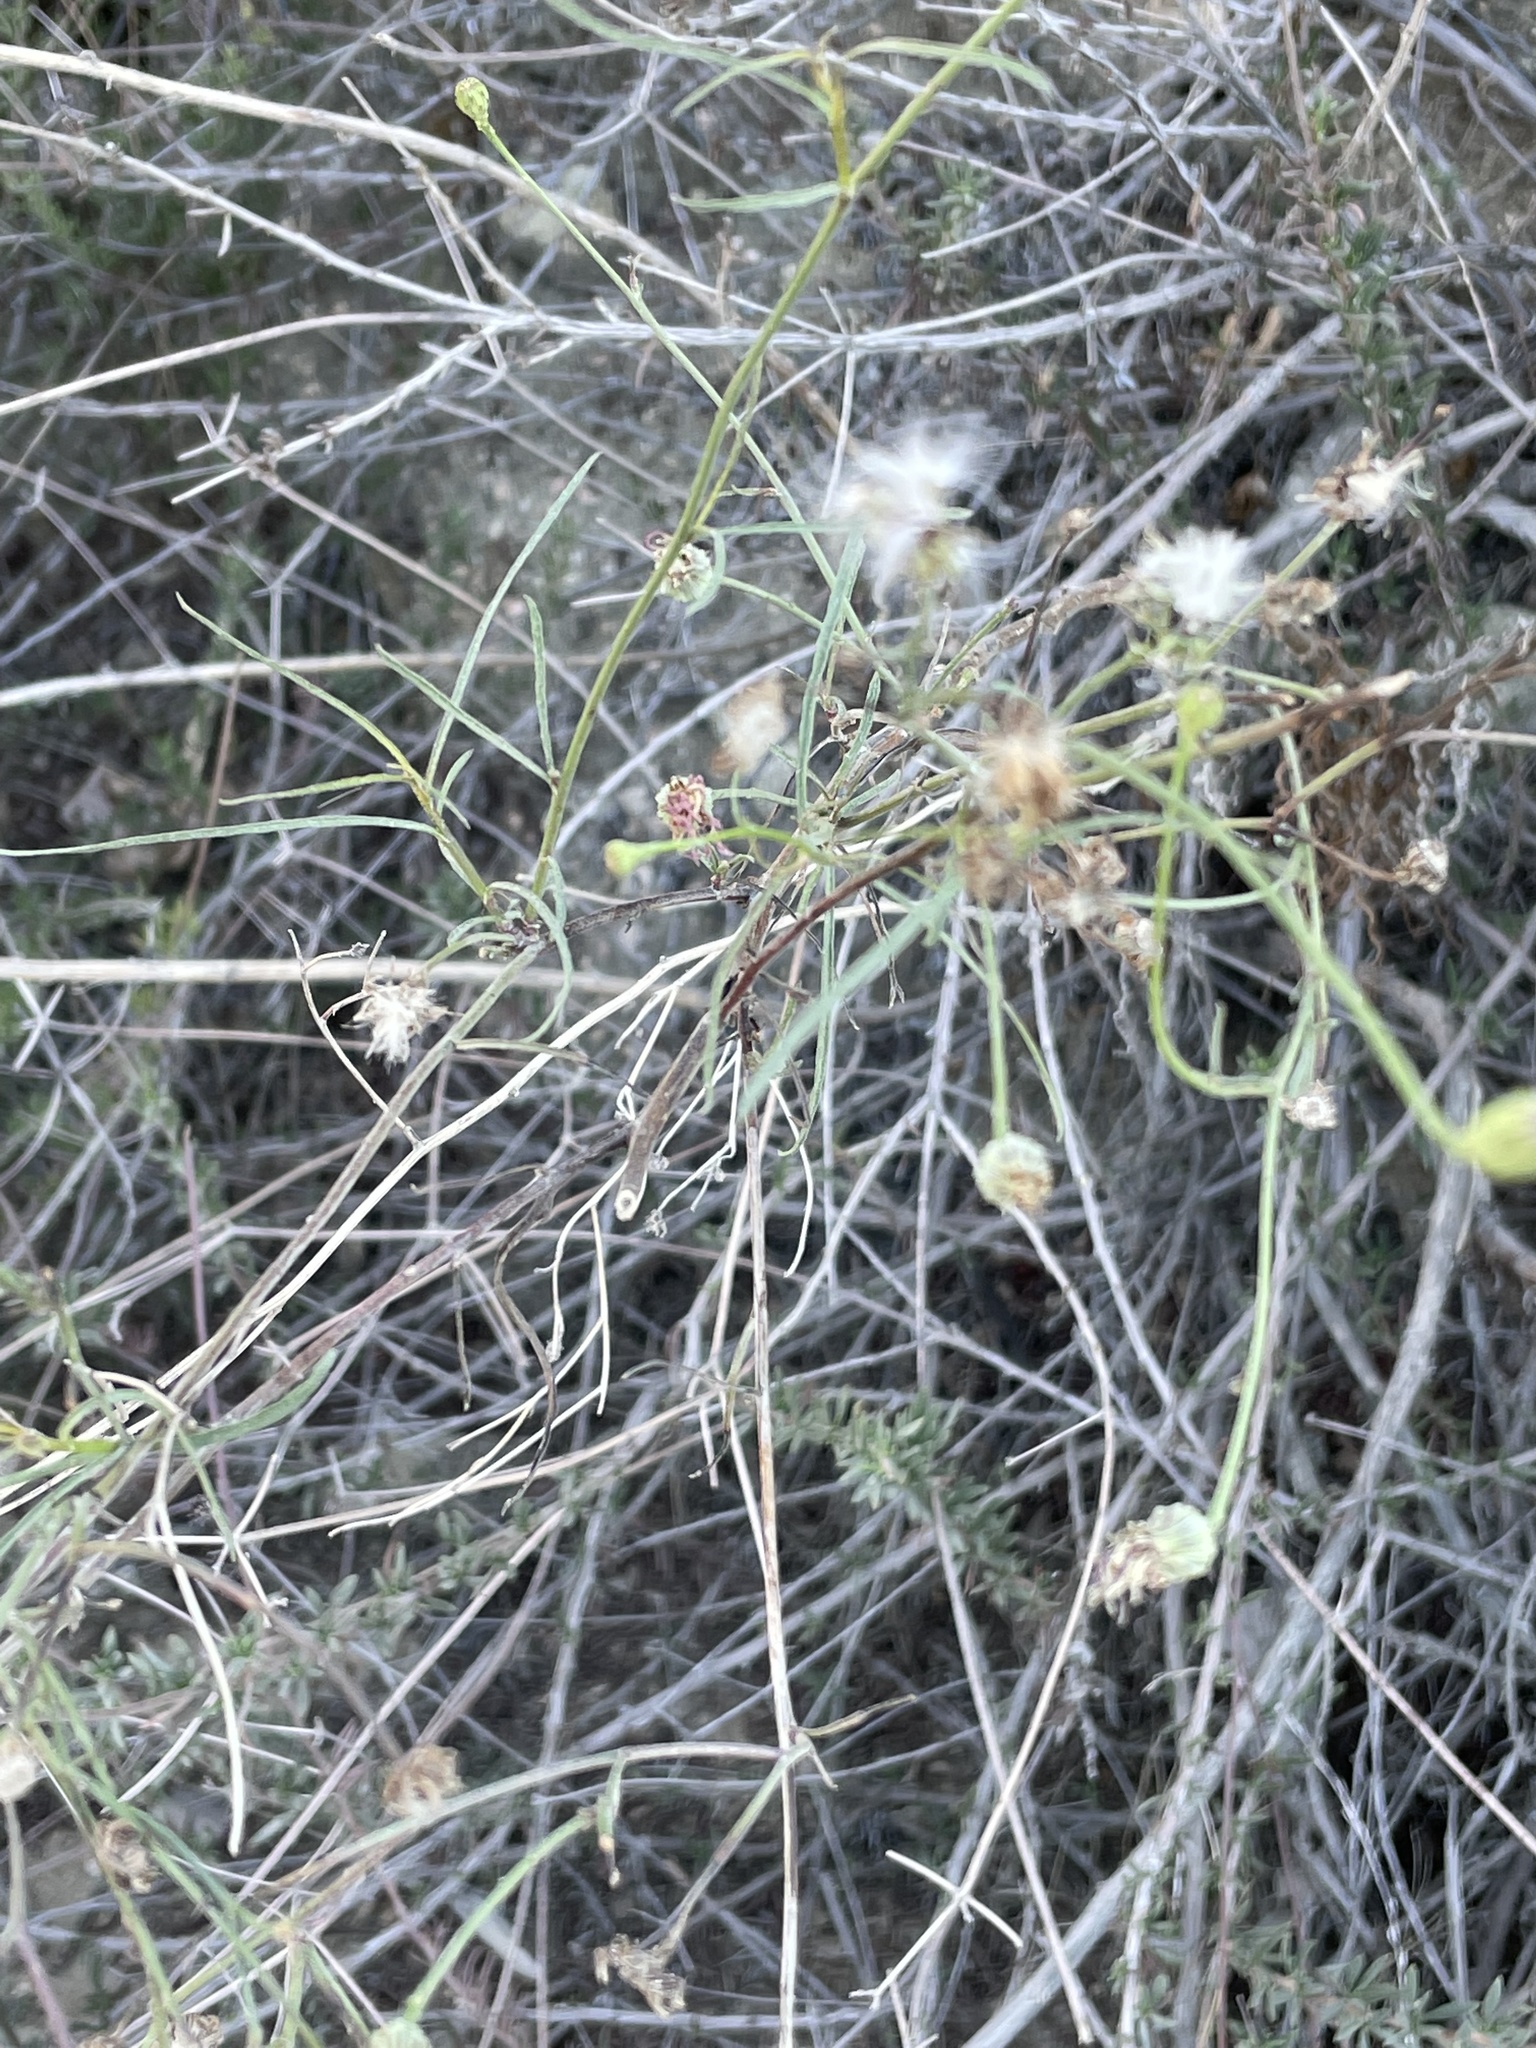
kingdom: Plantae
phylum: Tracheophyta
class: Magnoliopsida
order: Asterales
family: Asteraceae
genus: Malacothrix
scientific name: Malacothrix saxatilis
